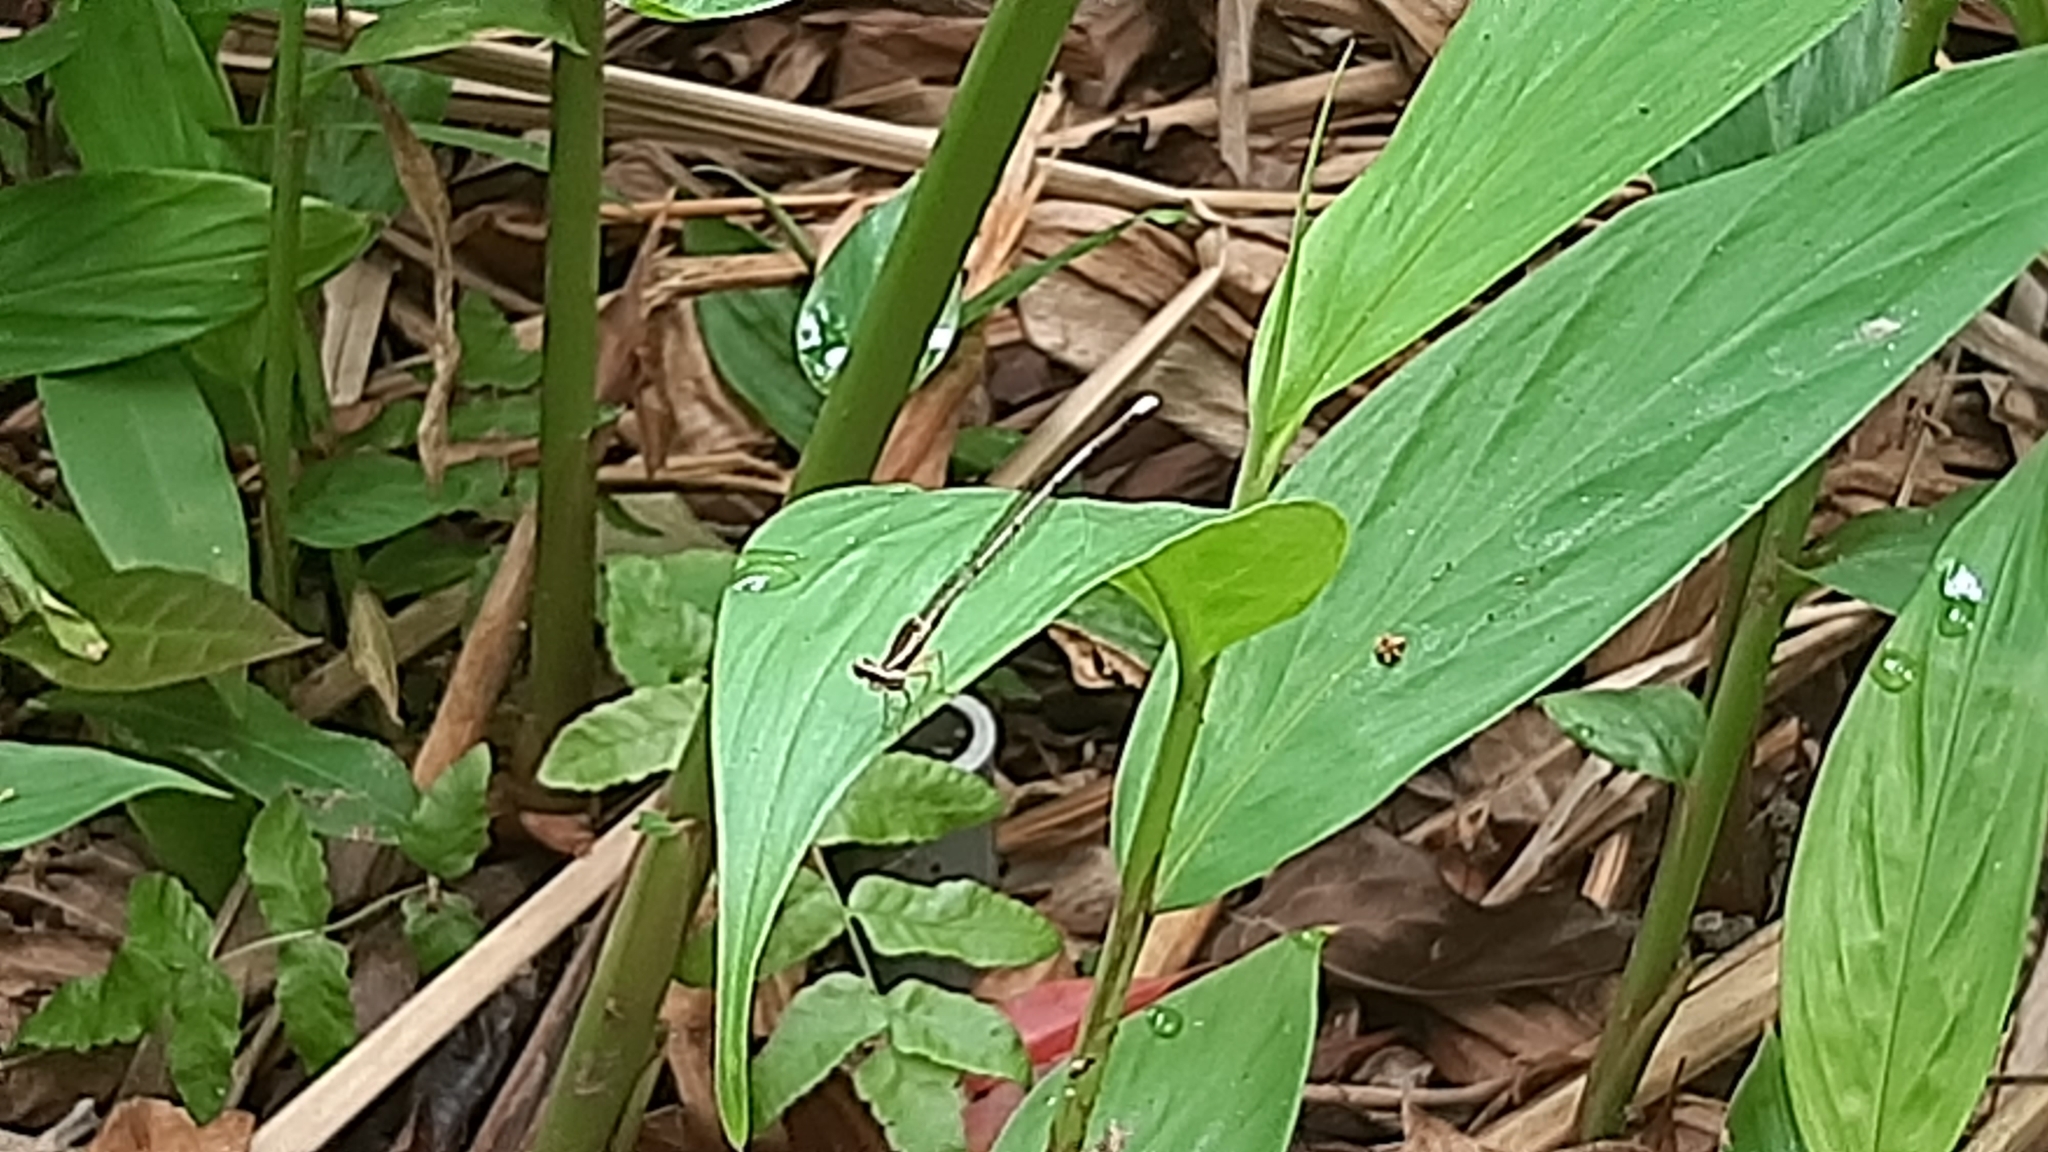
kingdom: Animalia
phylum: Arthropoda
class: Insecta
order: Odonata
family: Platycnemididae
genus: Copera
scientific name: Copera marginipes
